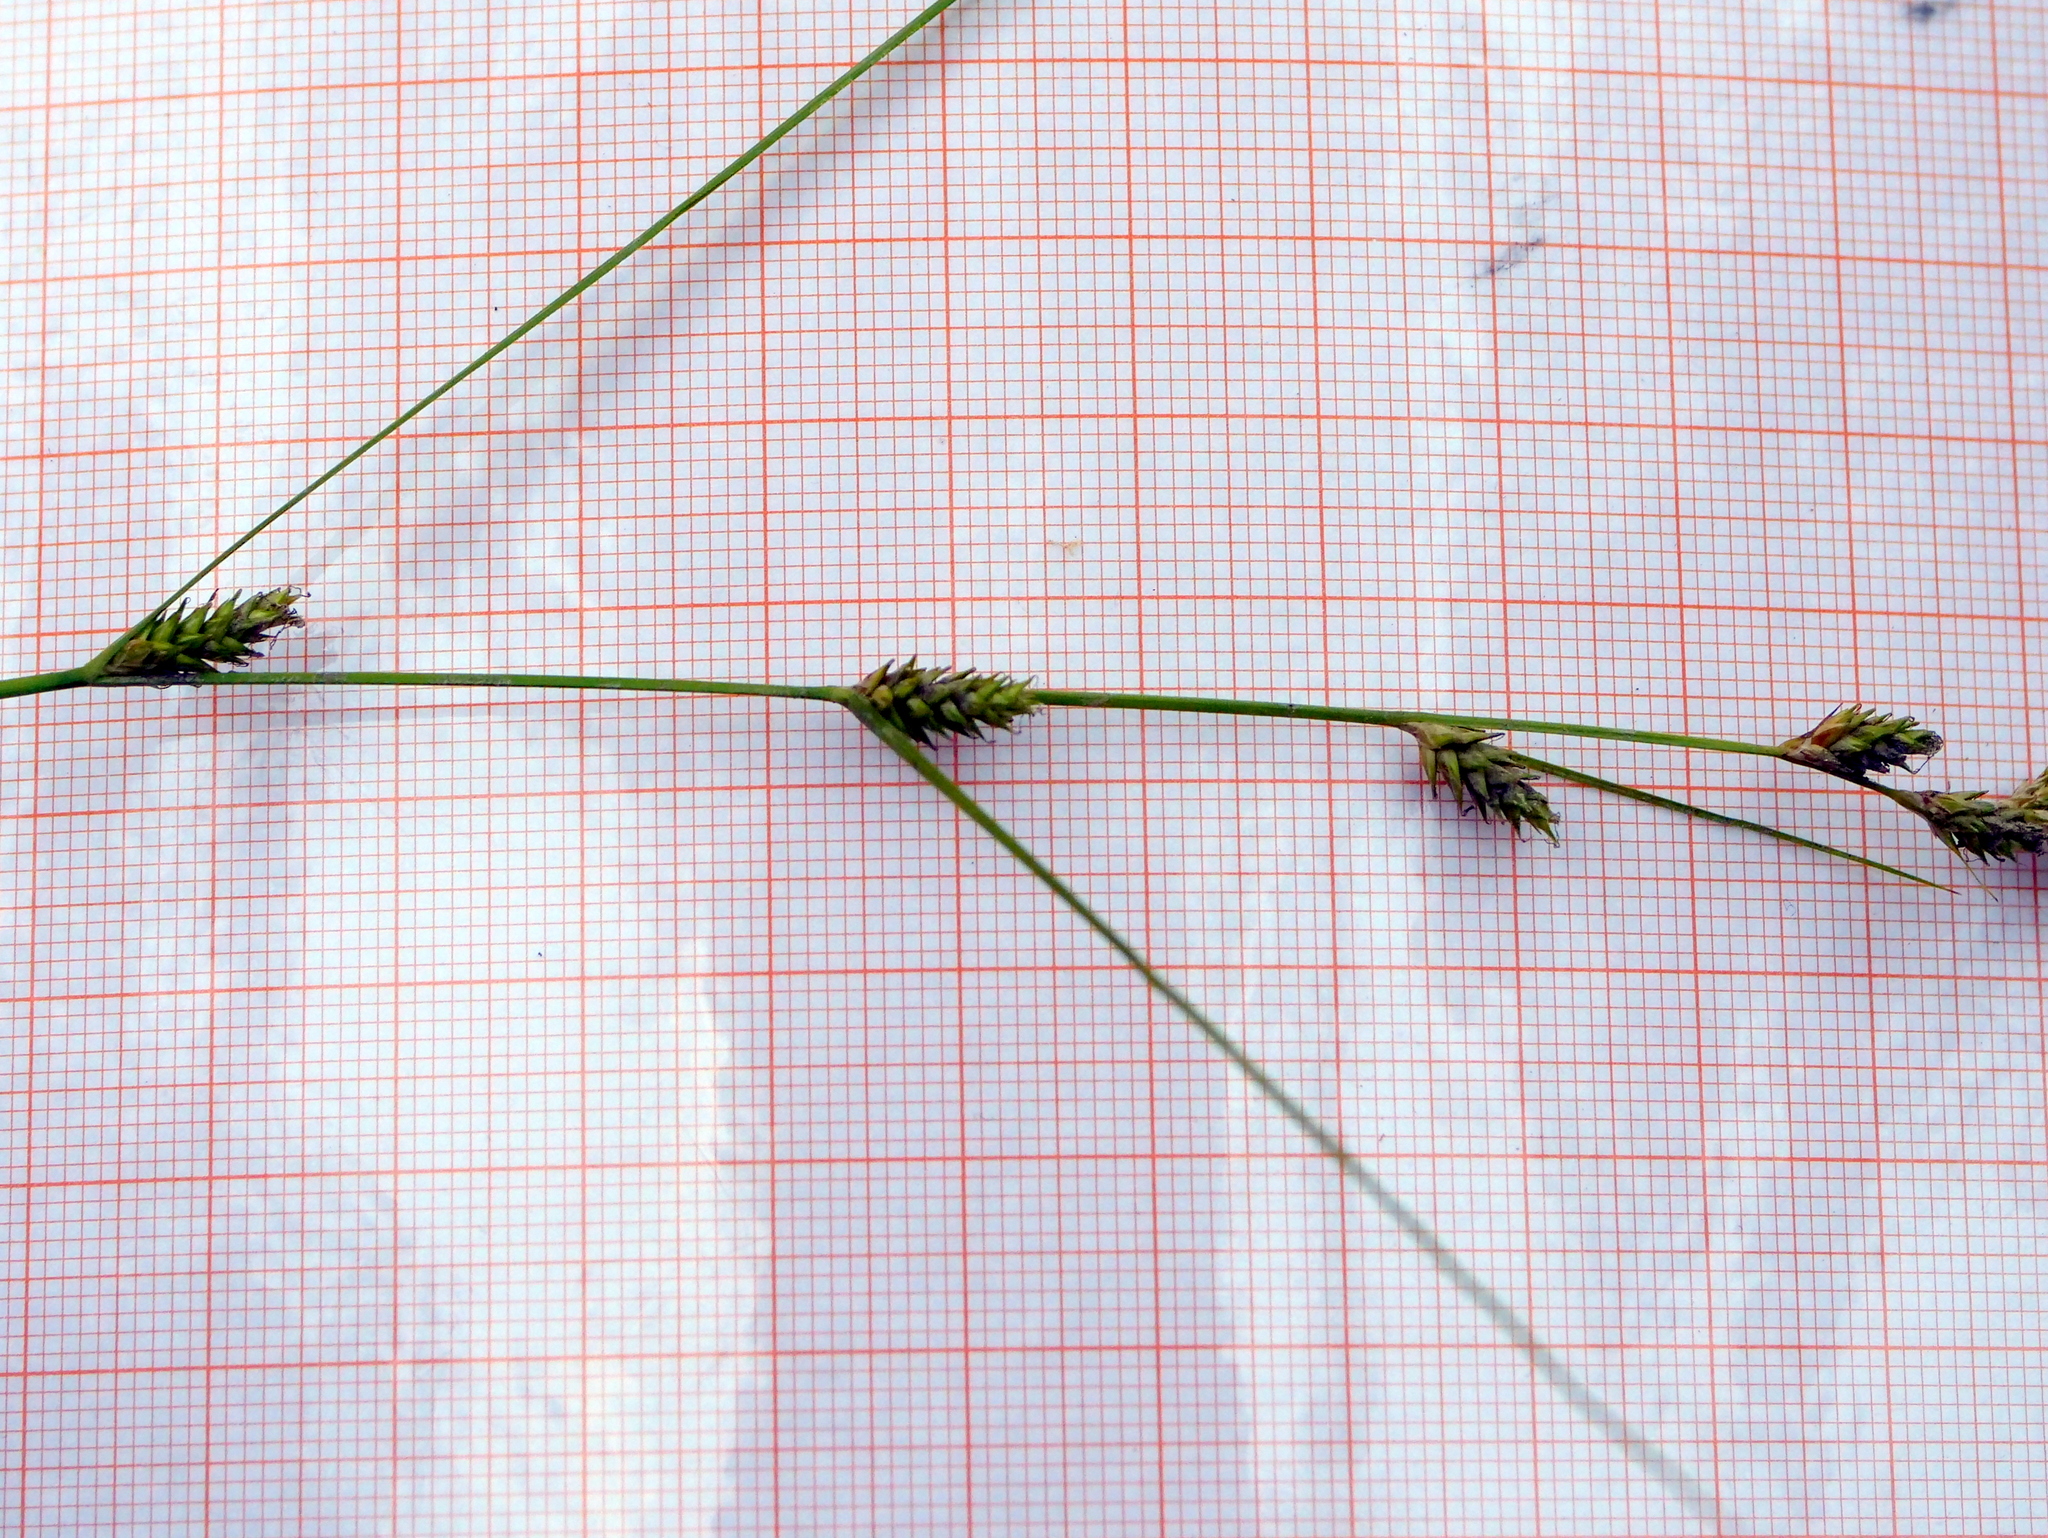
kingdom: Plantae
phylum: Tracheophyta
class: Liliopsida
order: Poales
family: Cyperaceae
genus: Carex
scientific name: Carex remota
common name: Remote sedge
